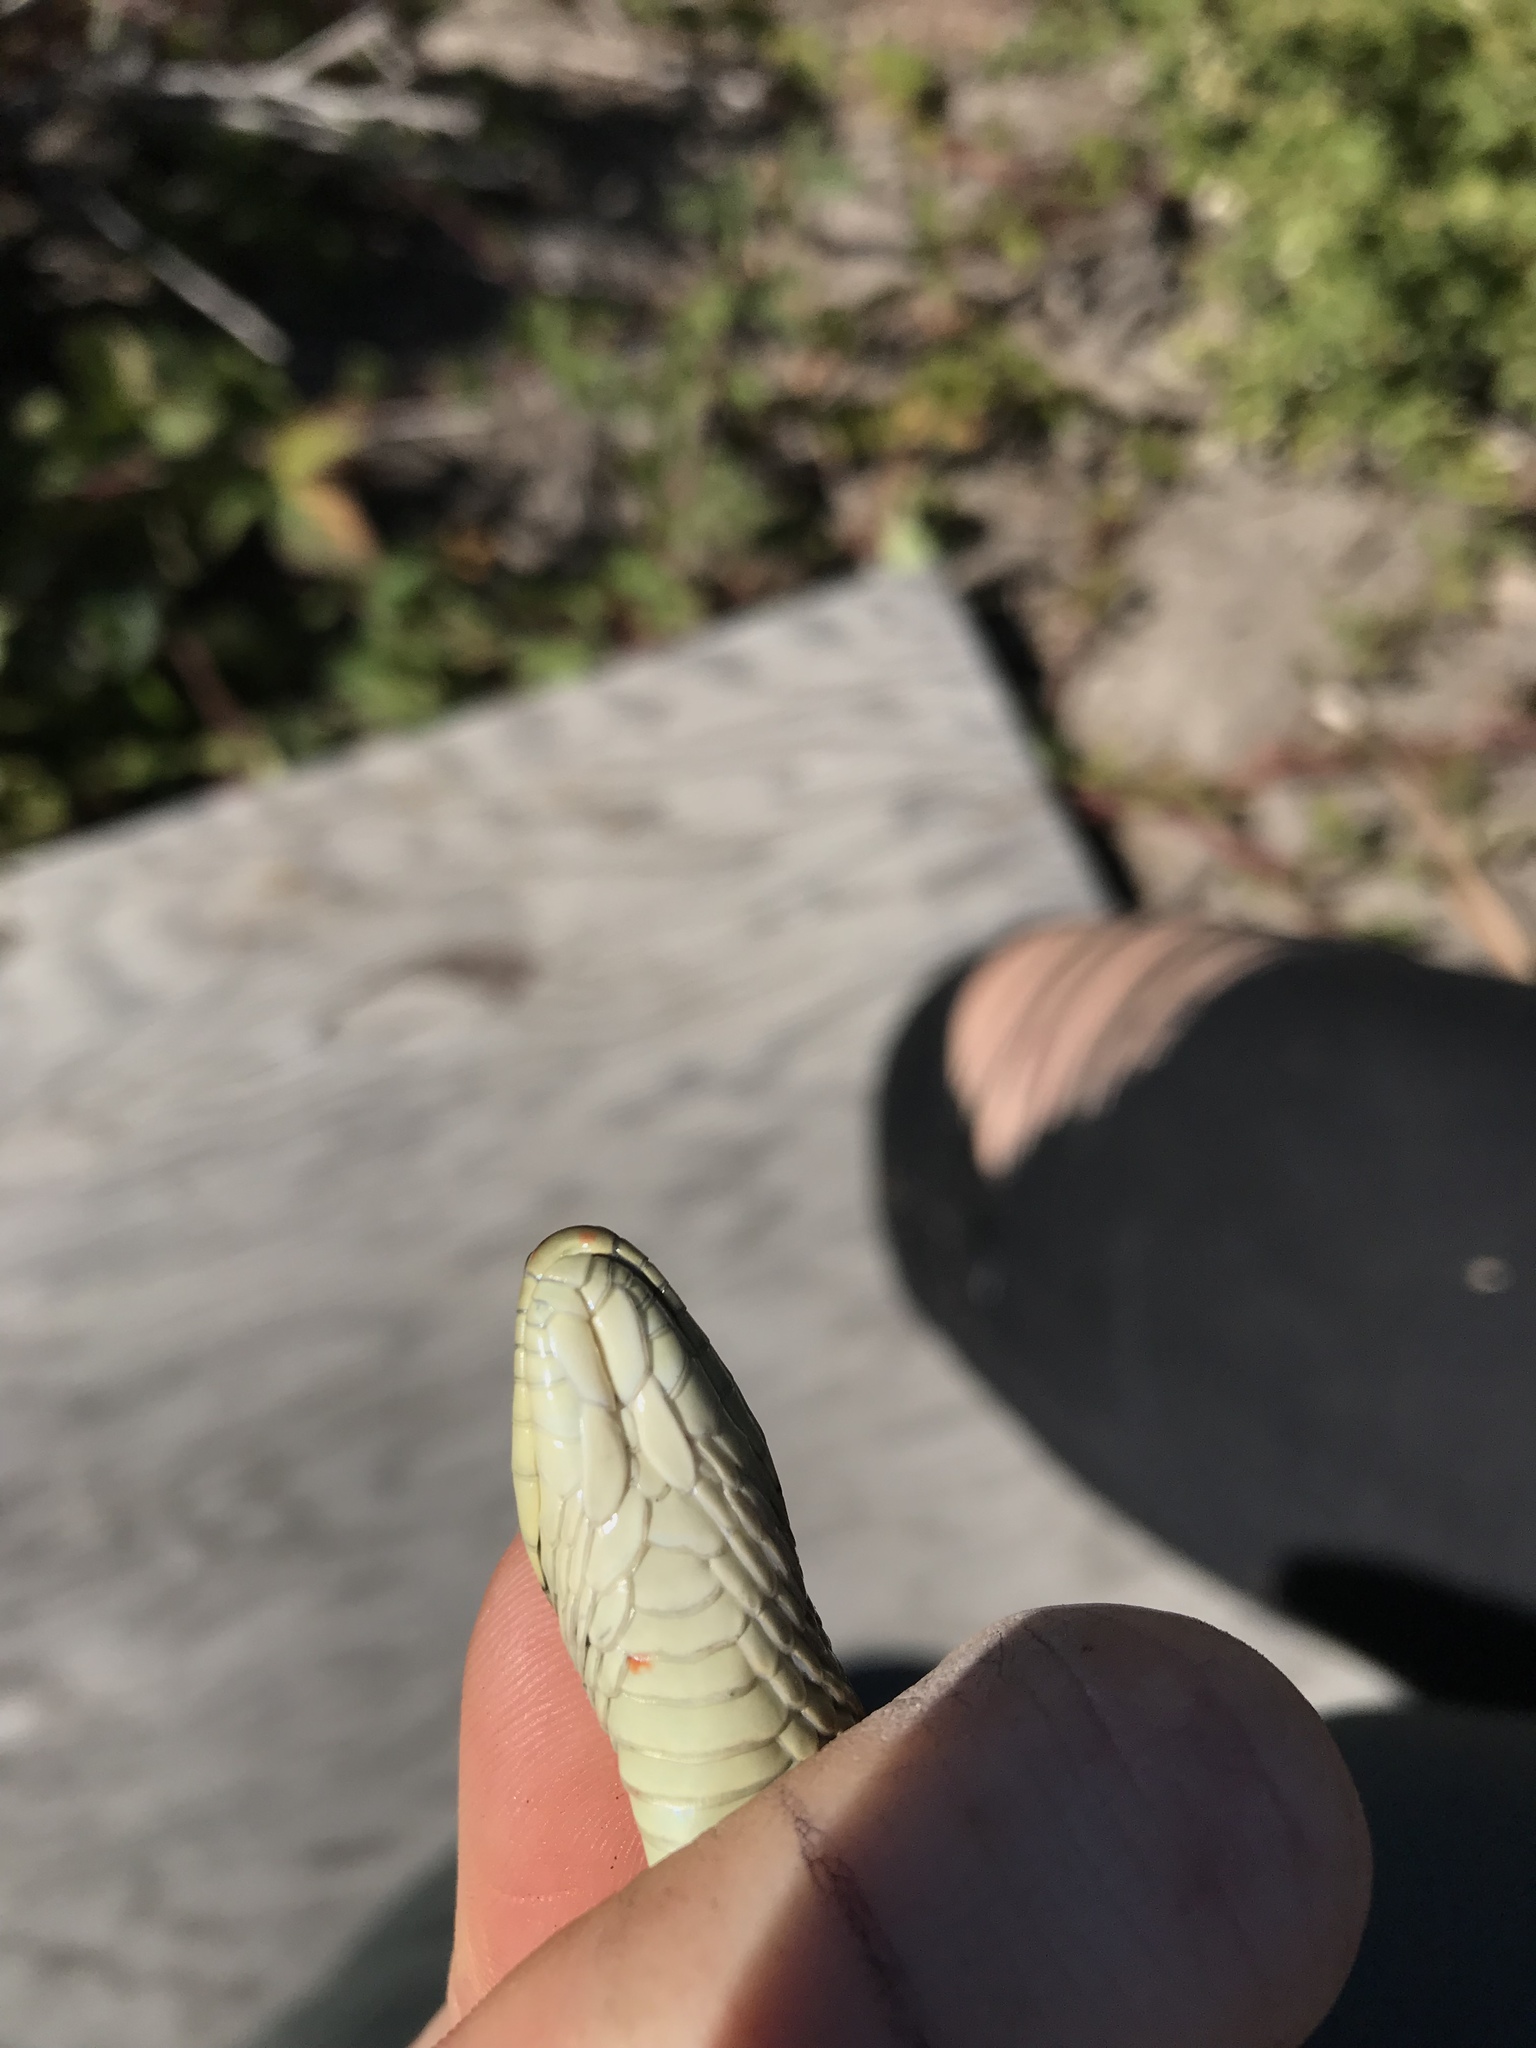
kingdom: Animalia
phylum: Chordata
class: Squamata
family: Colubridae
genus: Thamnophis
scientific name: Thamnophis elegans
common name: Western terrestrial garter snake
